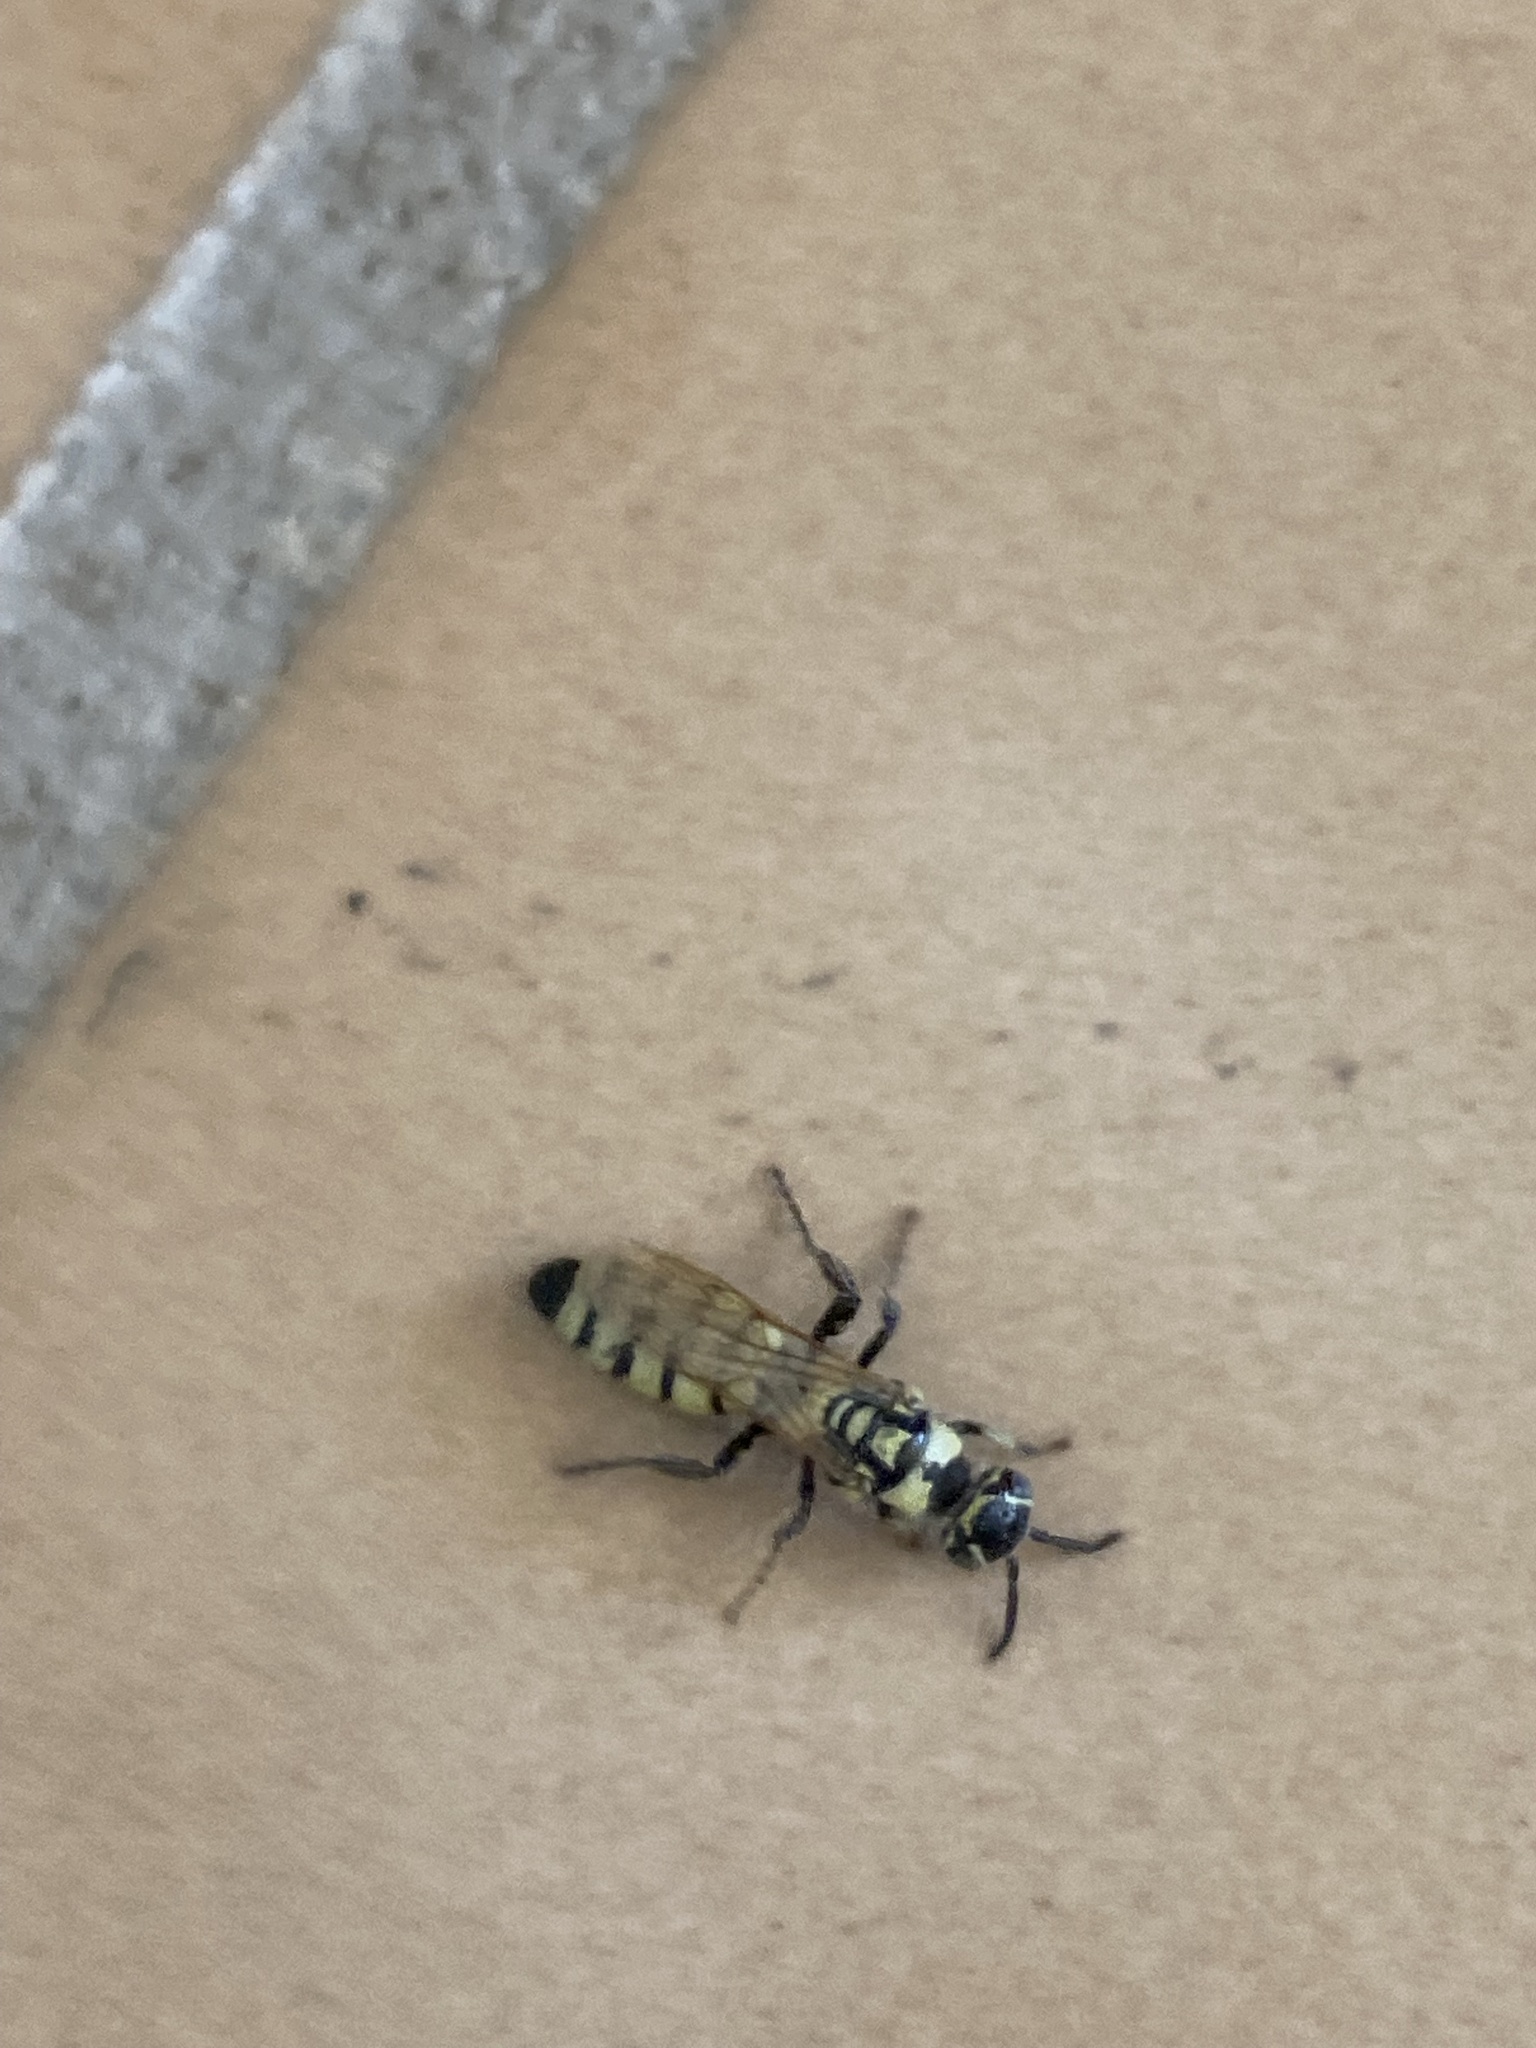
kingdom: Animalia
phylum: Arthropoda
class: Insecta
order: Hymenoptera
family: Tiphiidae
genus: Myzinum
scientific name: Myzinum frontalis
